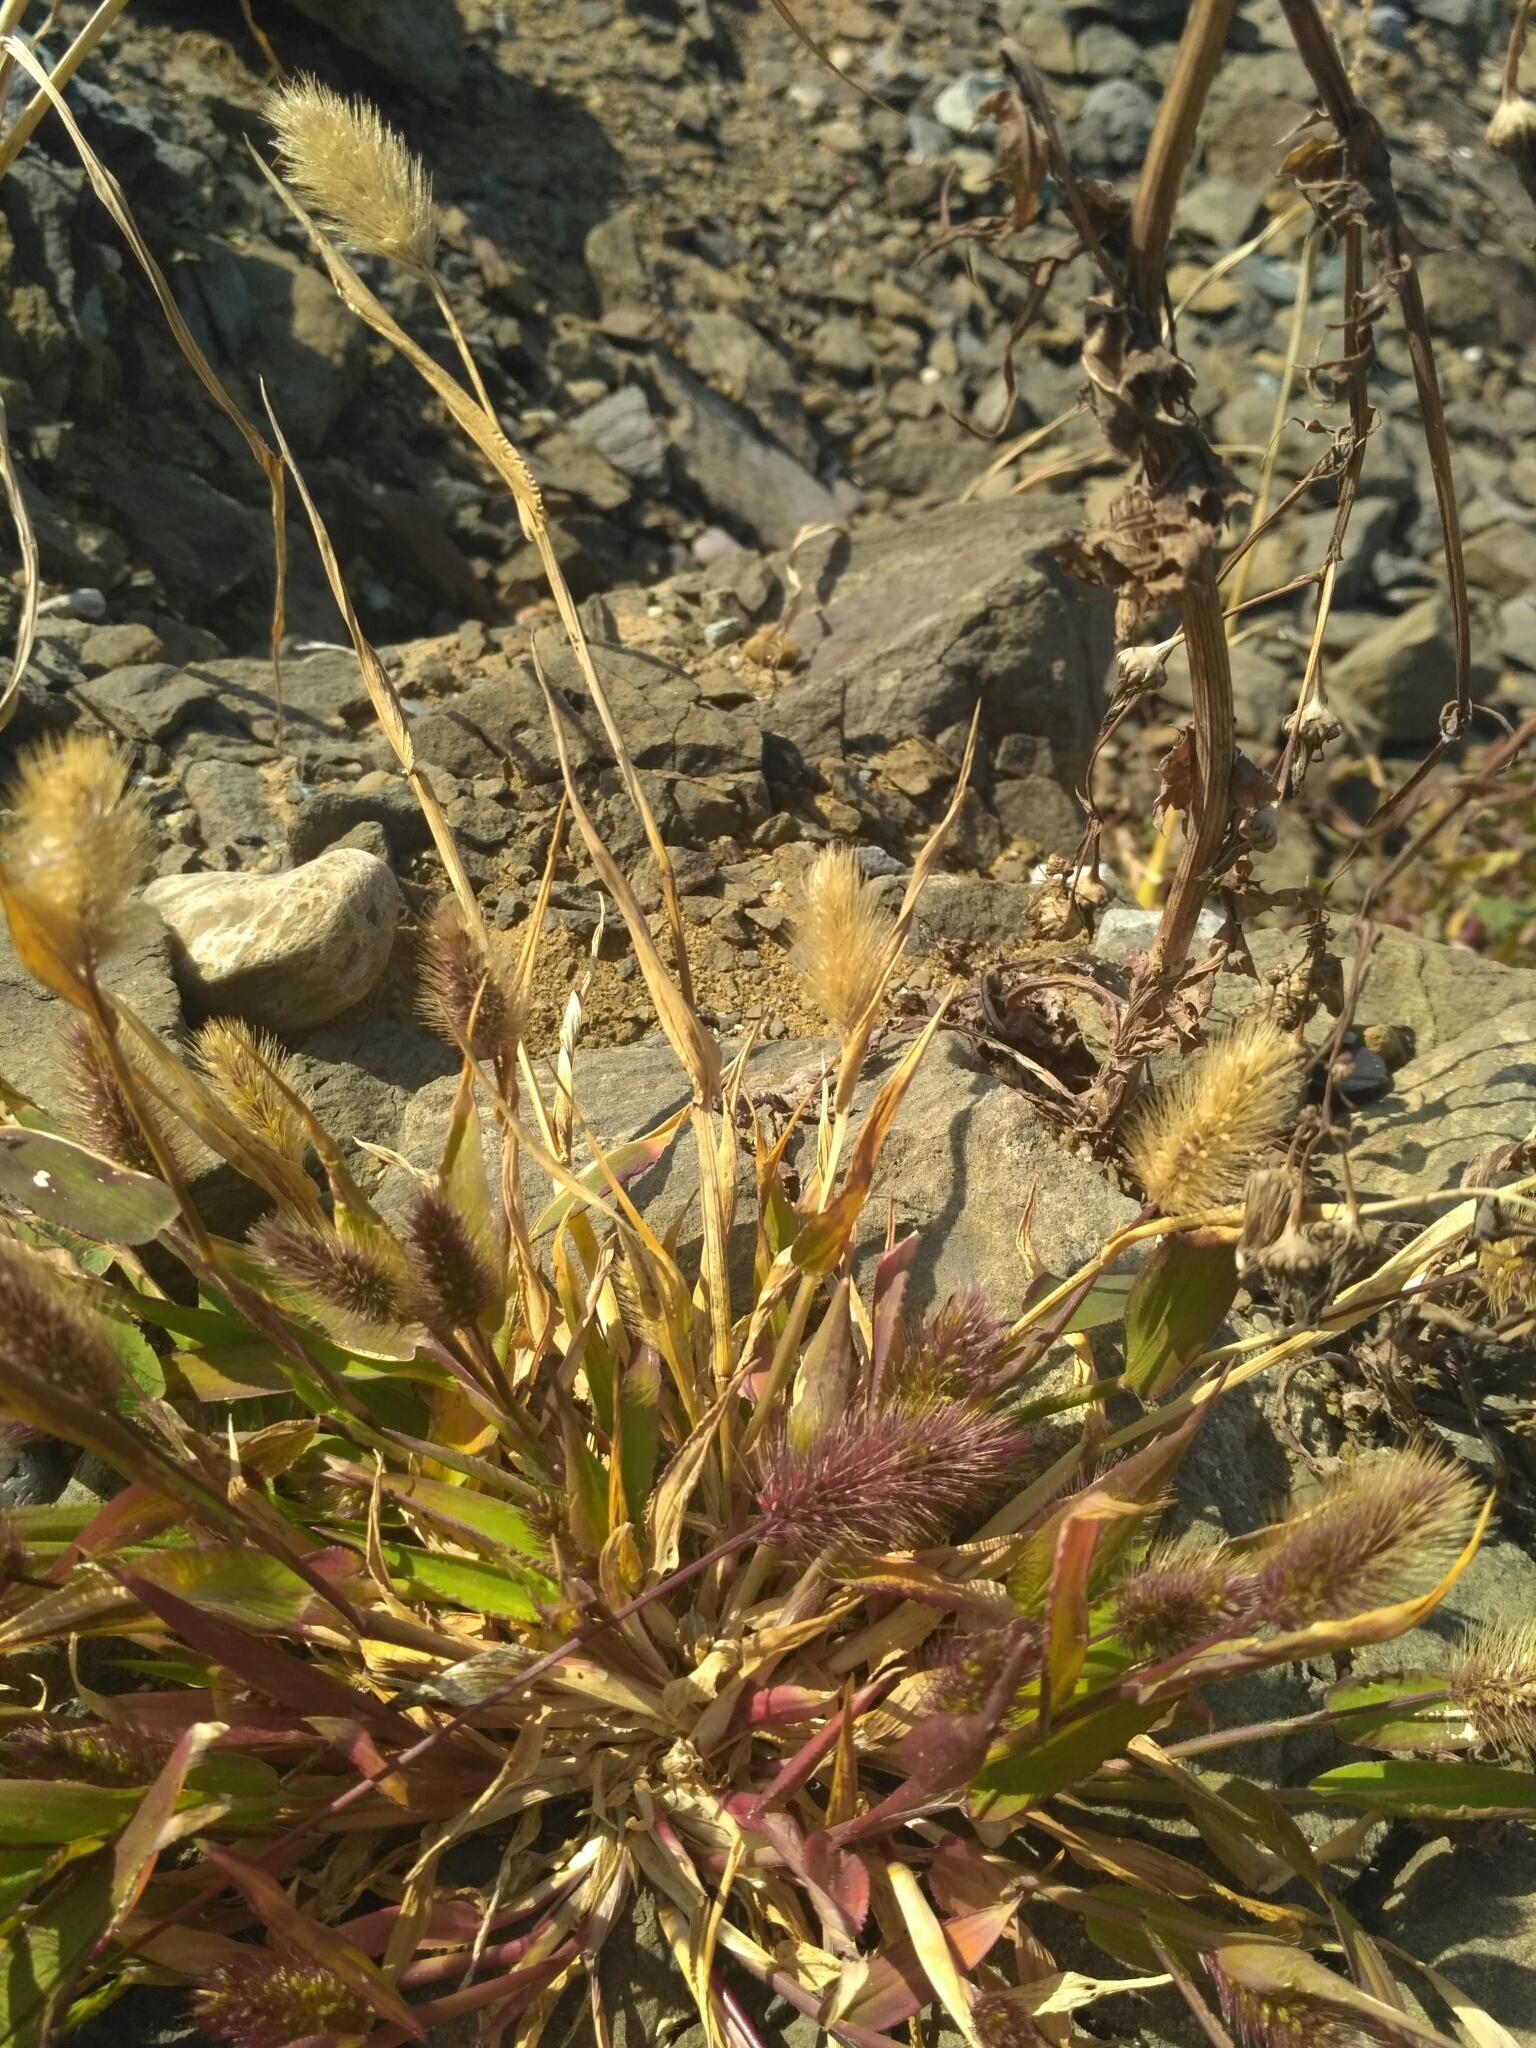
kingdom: Plantae
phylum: Tracheophyta
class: Liliopsida
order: Poales
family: Poaceae
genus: Setaria
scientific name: Setaria viridis
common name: Green bristlegrass
